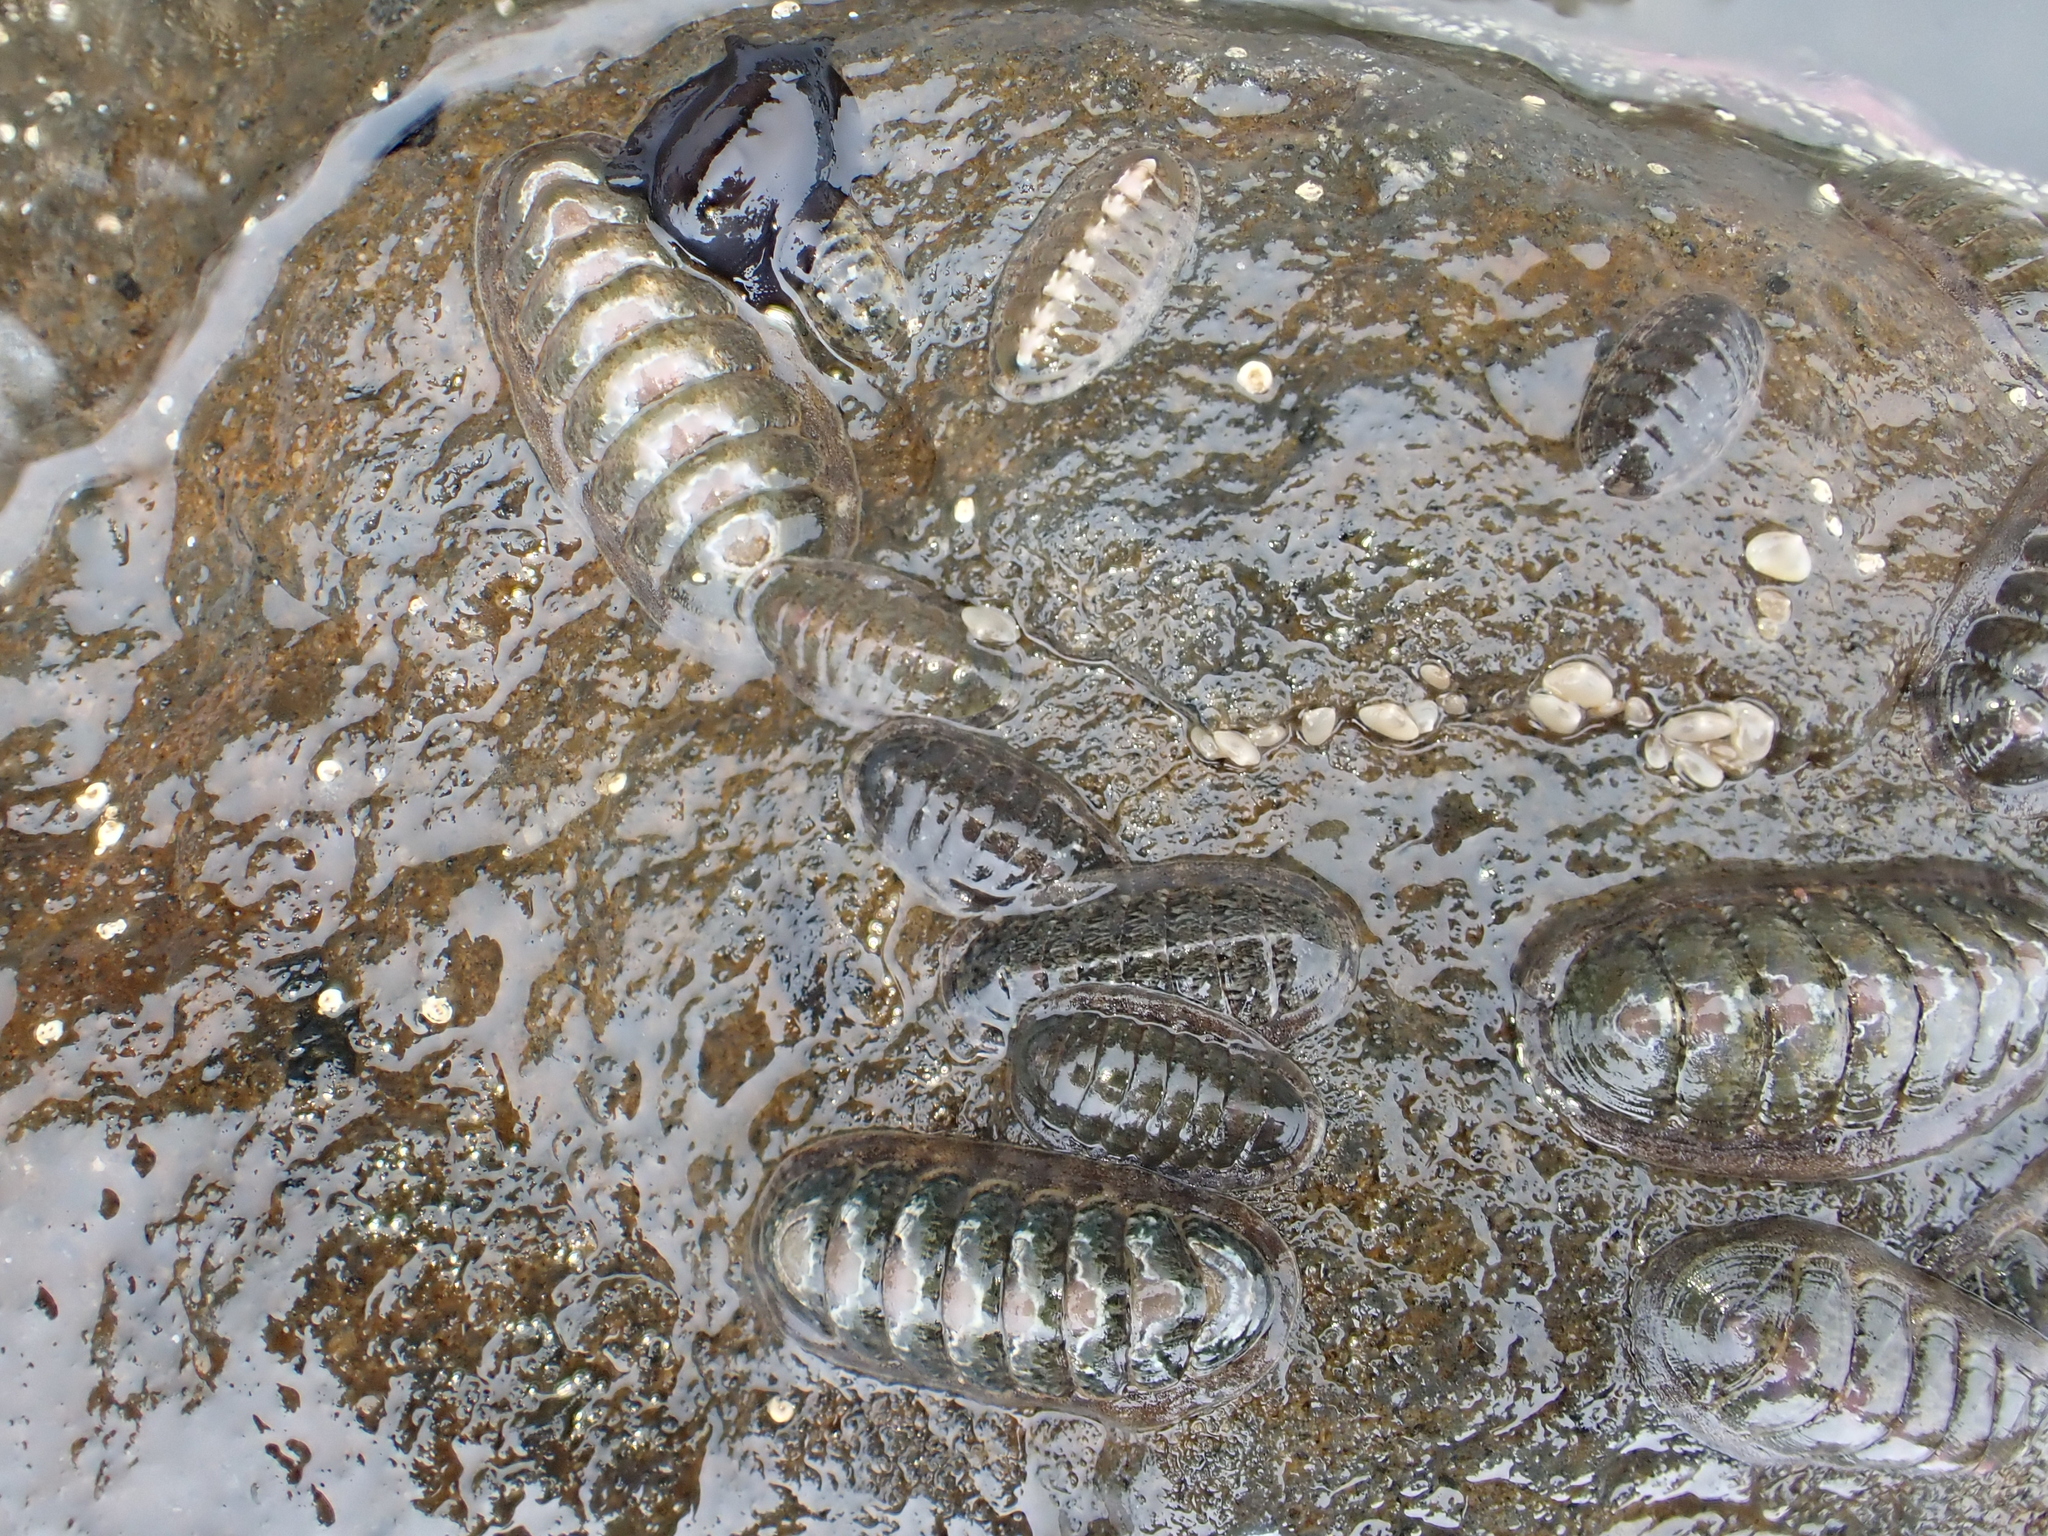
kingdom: Animalia
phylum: Mollusca
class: Polyplacophora
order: Chitonida
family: Ischnochitonidae
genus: Ischnochiton
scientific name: Ischnochiton maorianus
